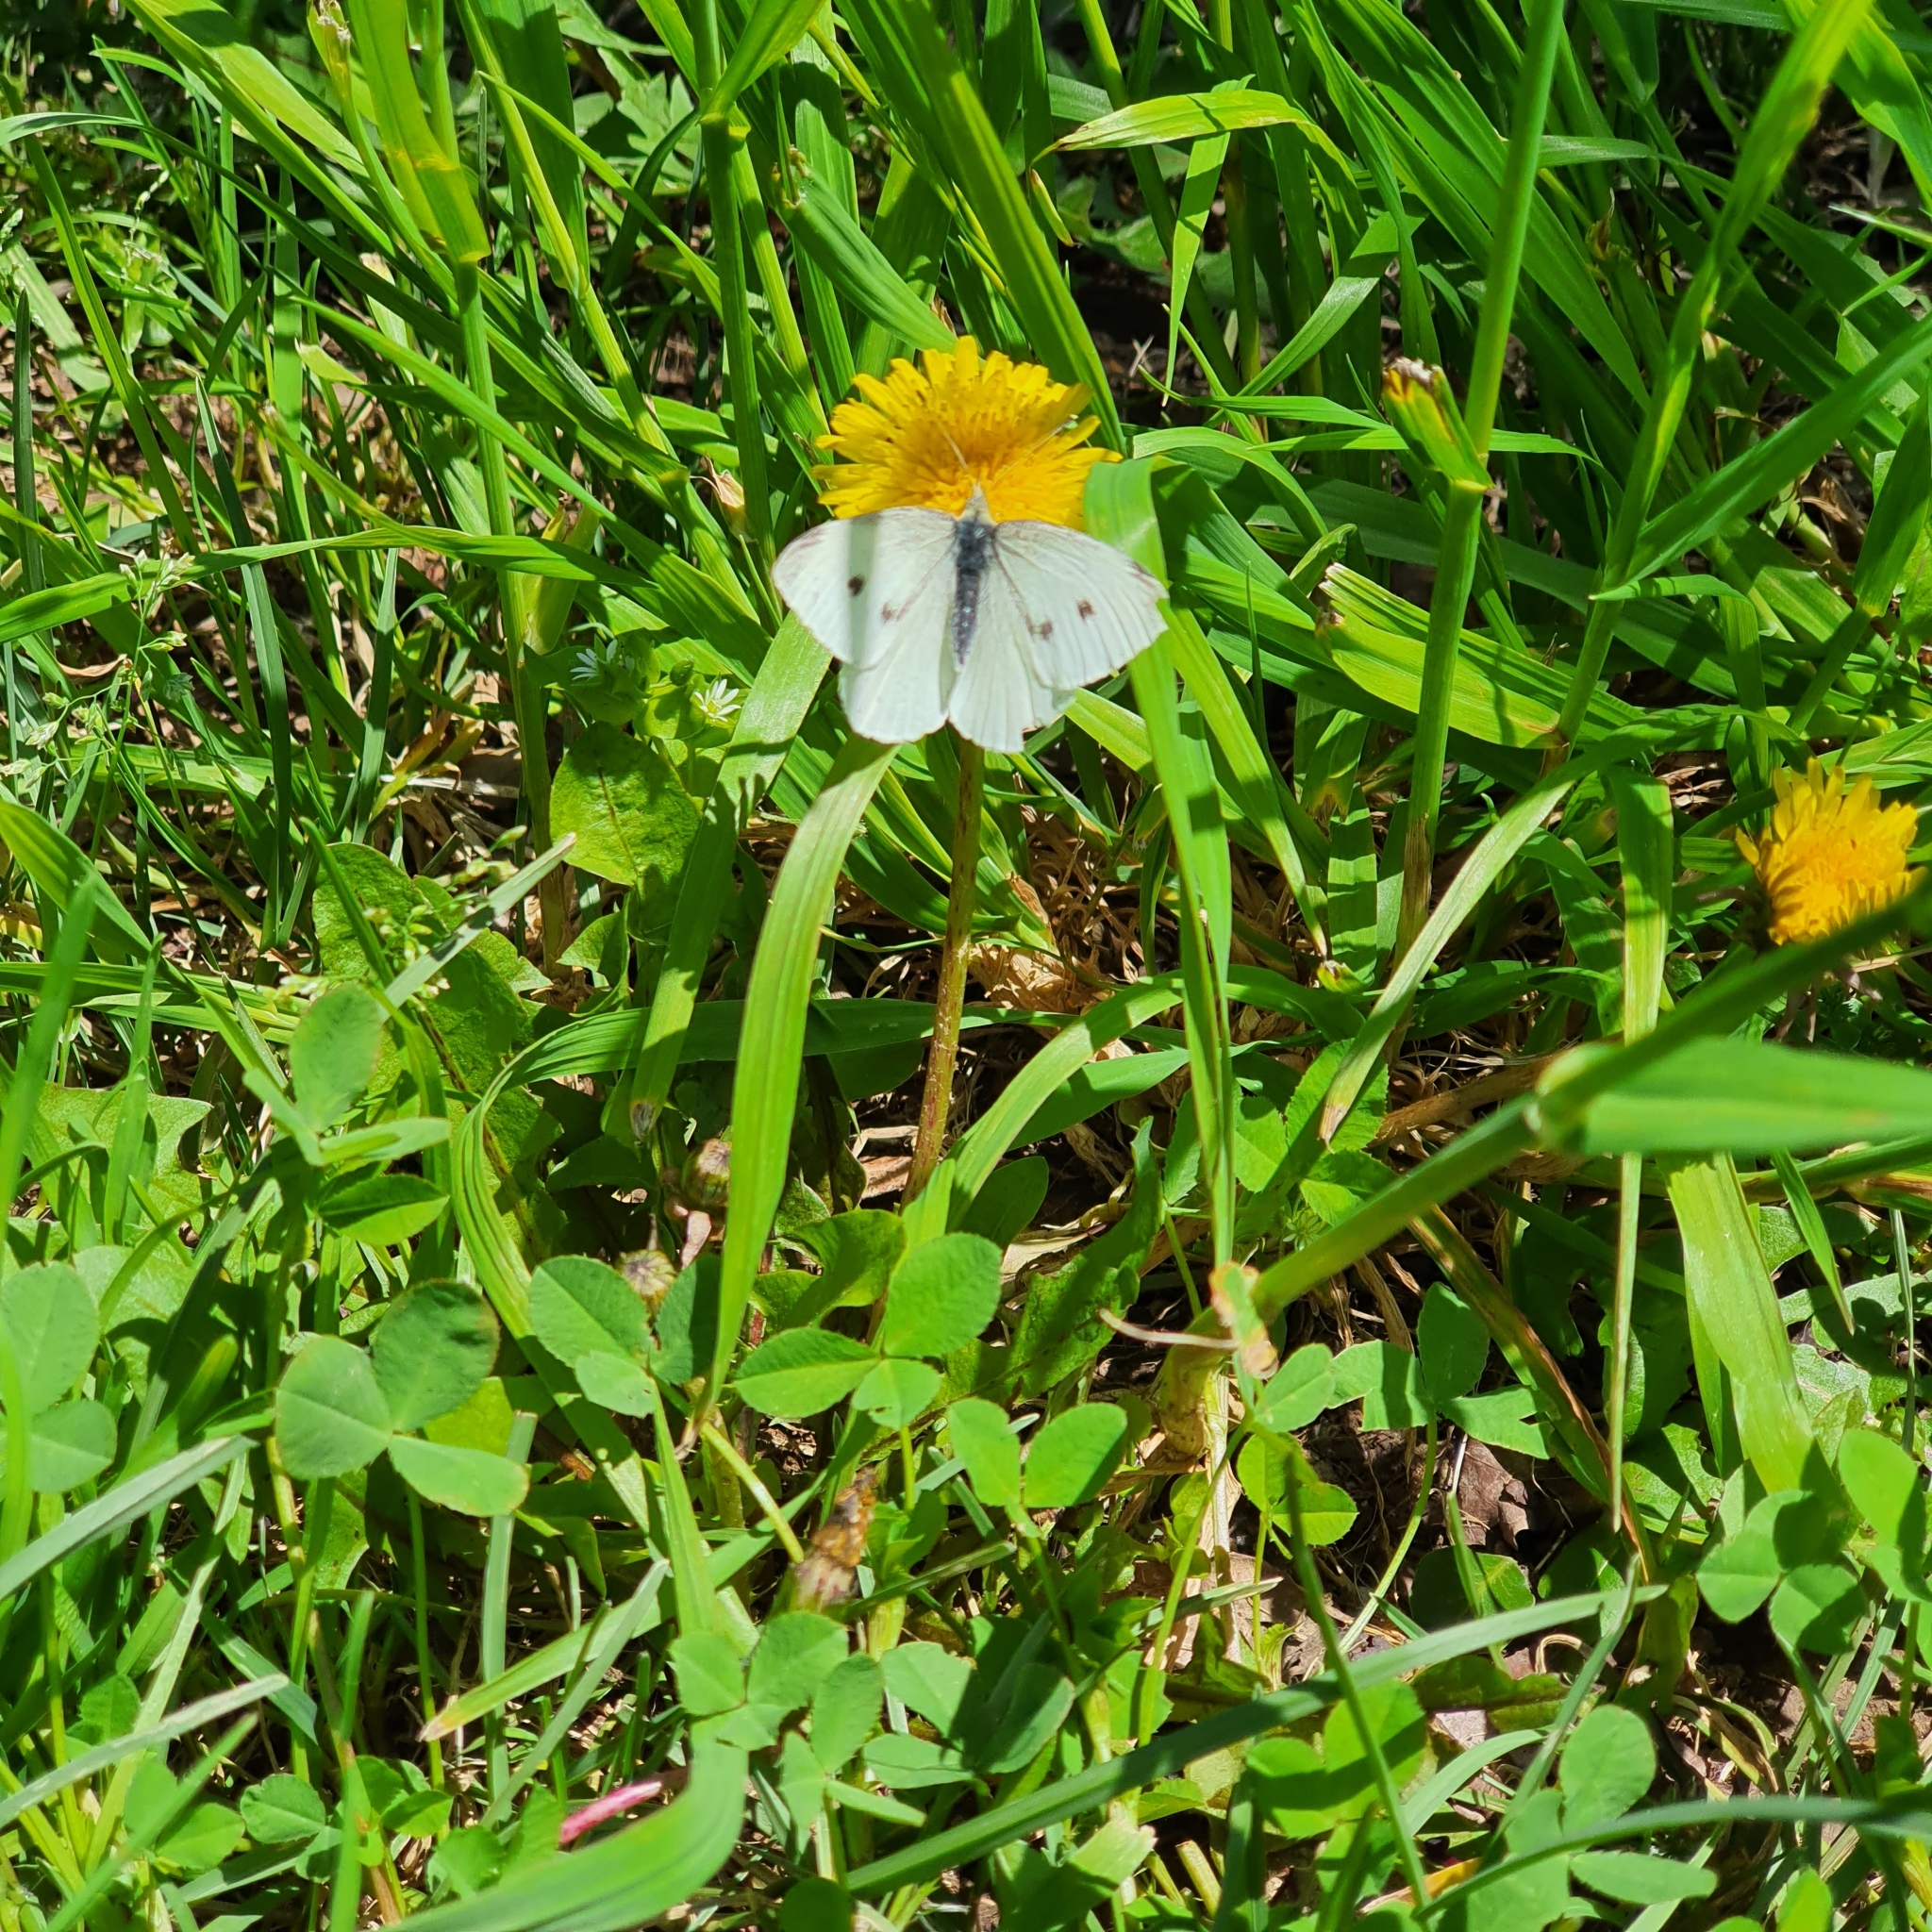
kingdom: Animalia
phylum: Arthropoda
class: Insecta
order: Lepidoptera
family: Pieridae
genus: Pieris
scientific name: Pieris rapae
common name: Small white
